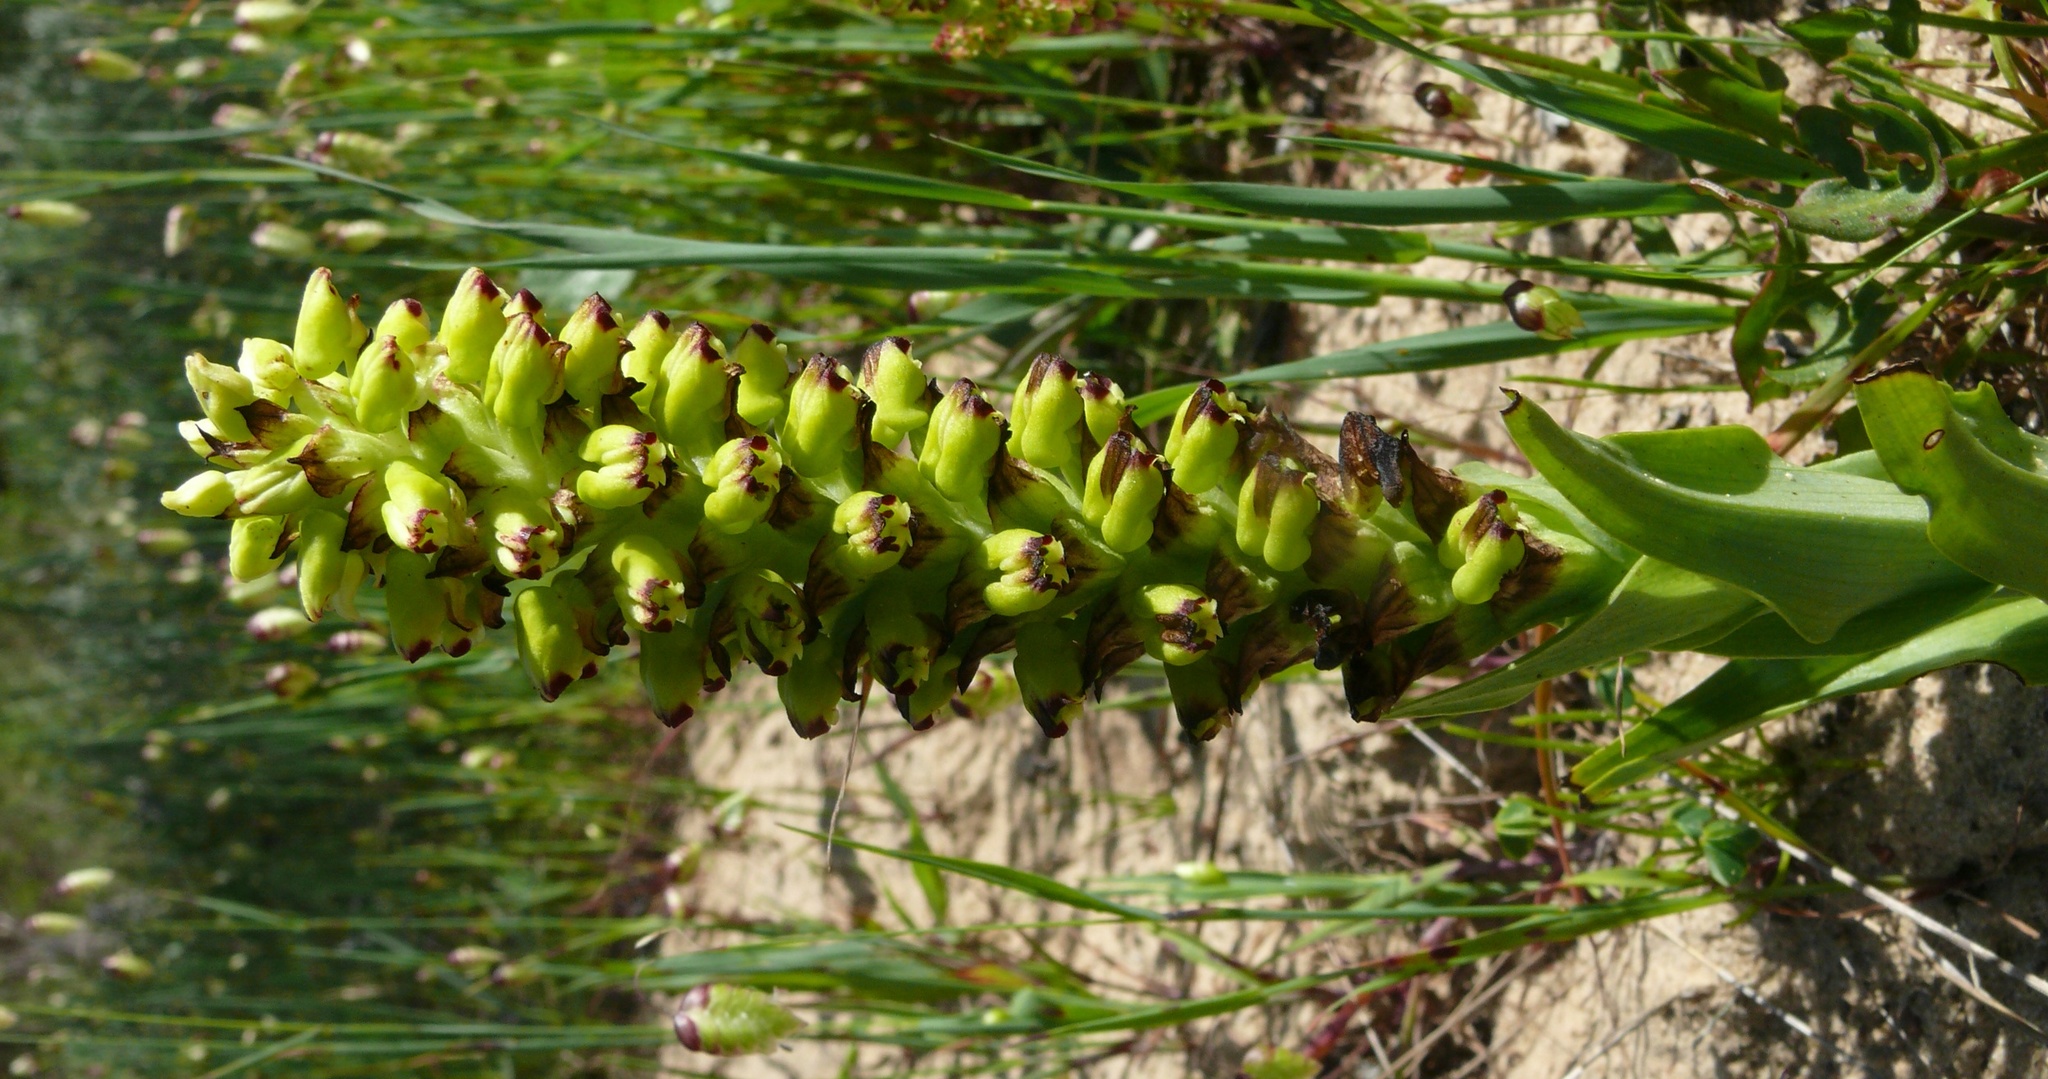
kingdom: Plantae
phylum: Tracheophyta
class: Liliopsida
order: Asparagales
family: Orchidaceae
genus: Corycium
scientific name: Corycium orobanchoides
